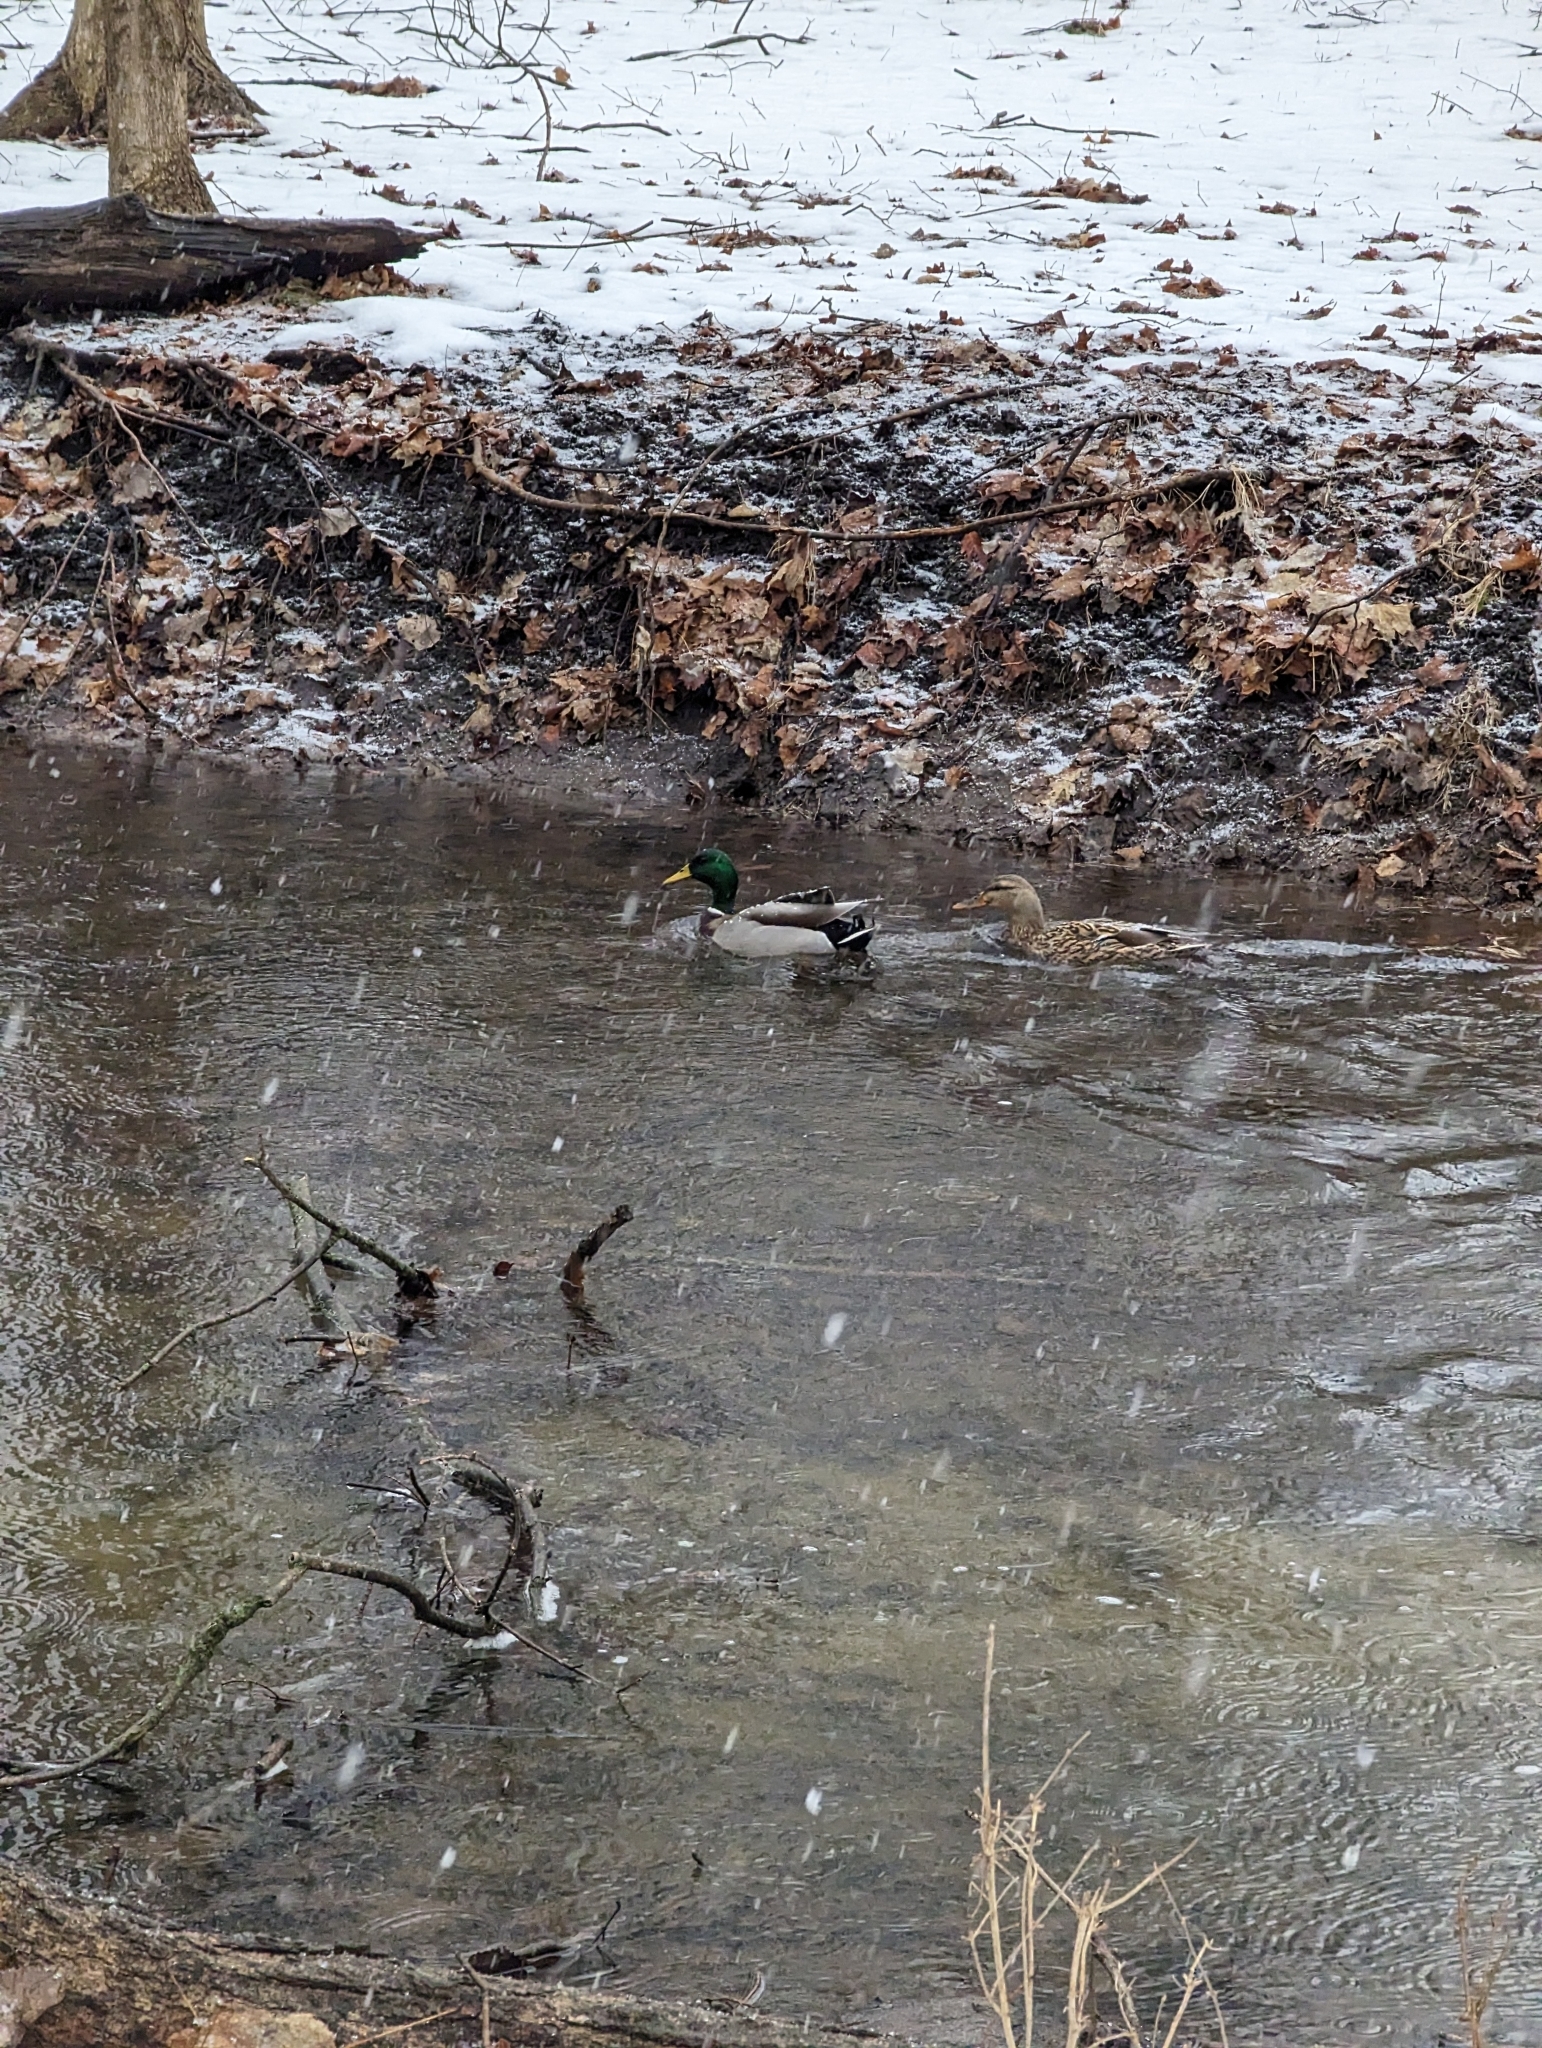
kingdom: Animalia
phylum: Chordata
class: Aves
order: Anseriformes
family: Anatidae
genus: Anas
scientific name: Anas platyrhynchos
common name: Mallard
